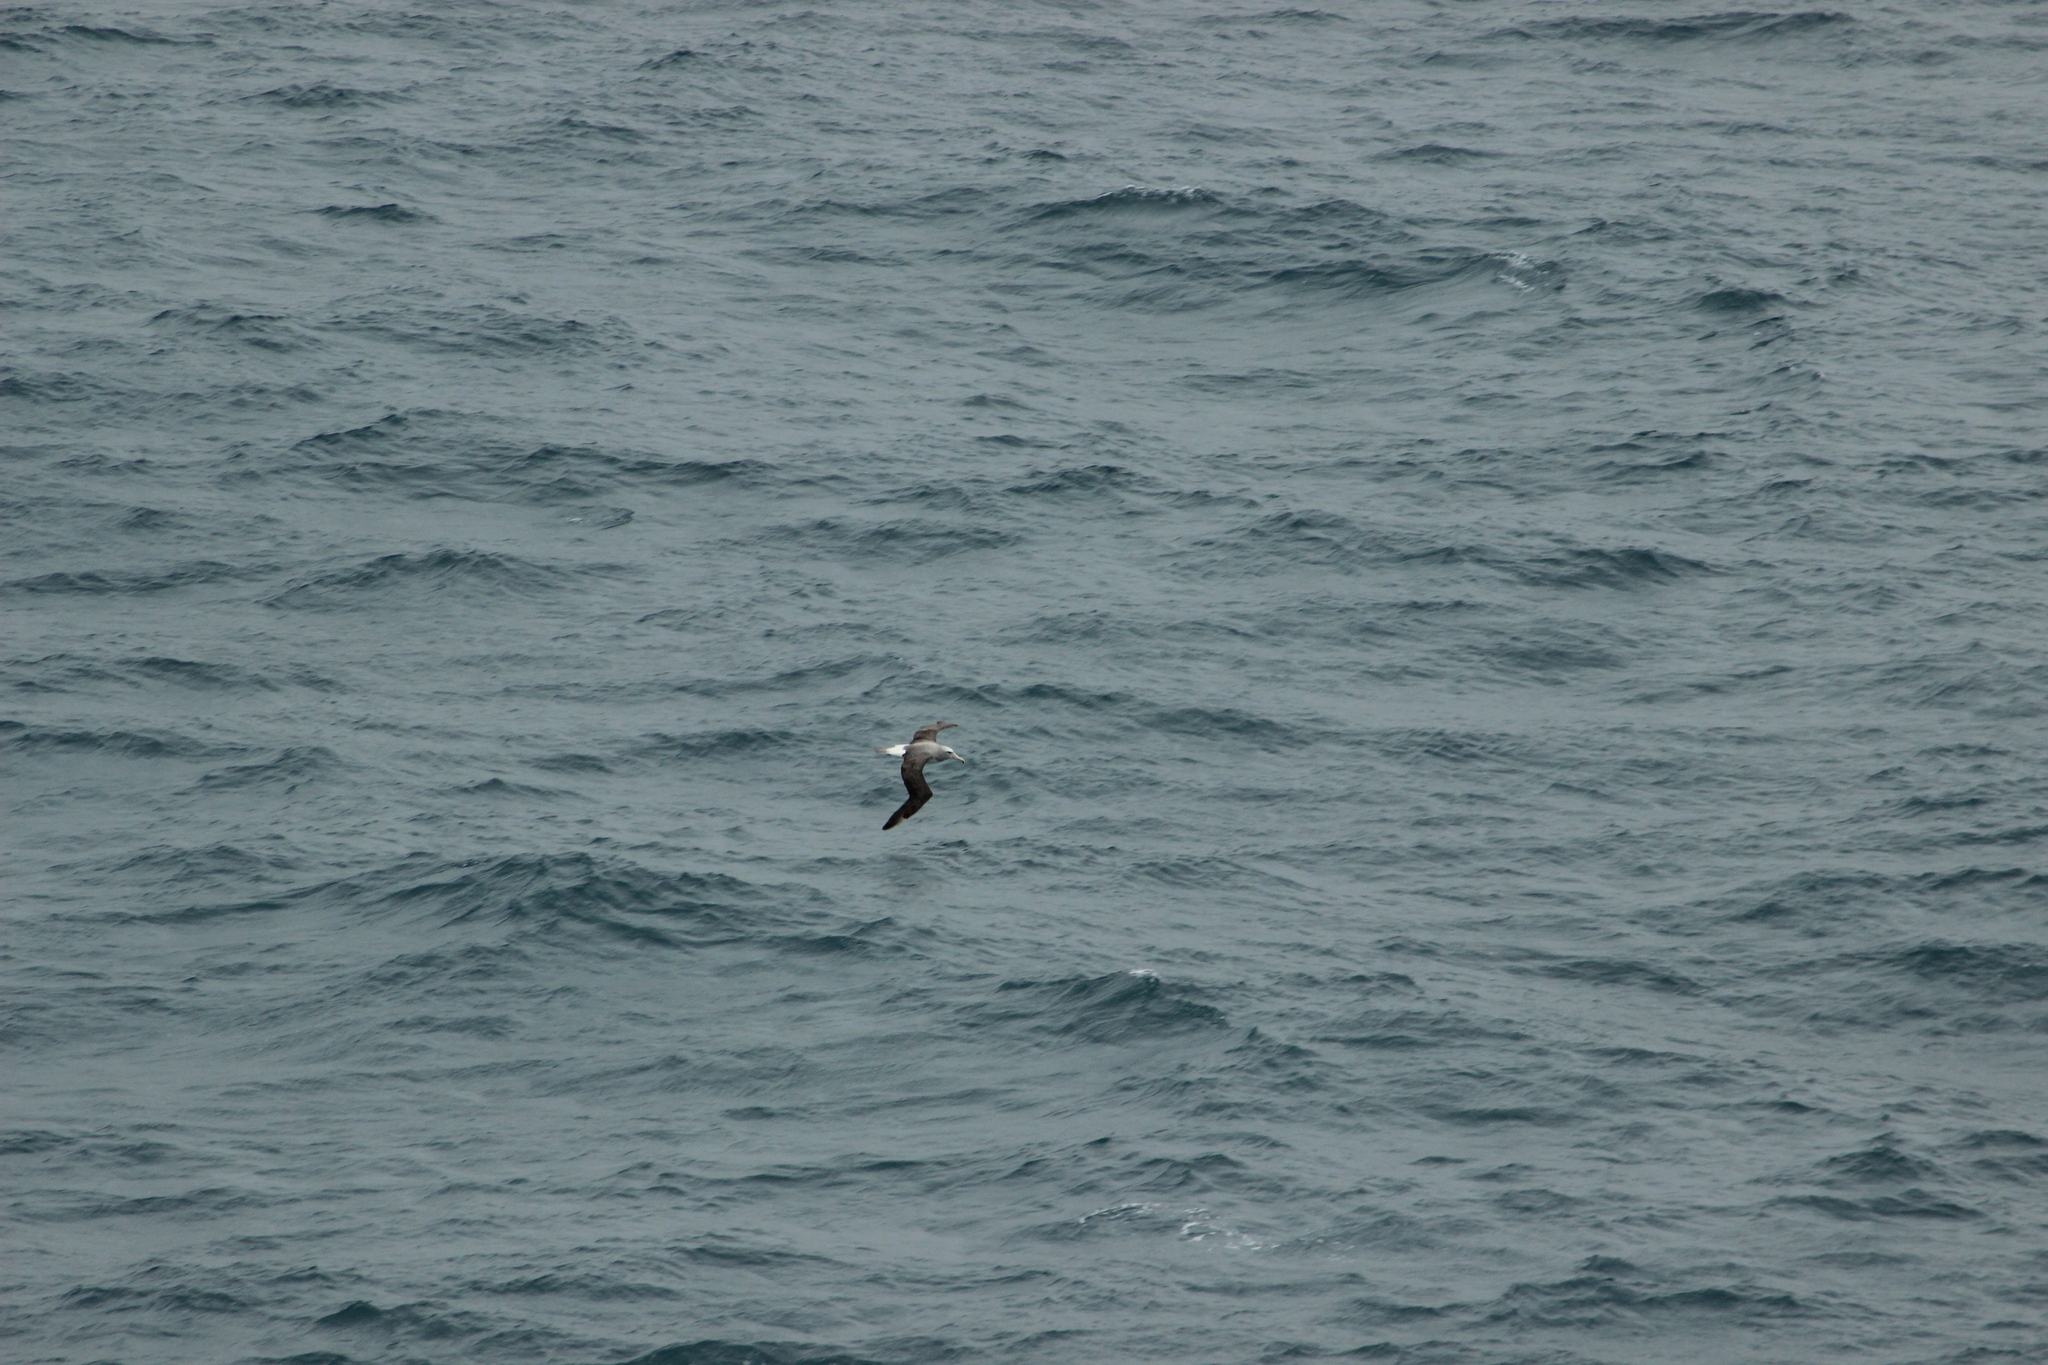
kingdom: Animalia
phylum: Chordata
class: Aves
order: Procellariiformes
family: Diomedeidae
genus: Thalassarche
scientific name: Thalassarche salvini
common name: Salvin's albatross
